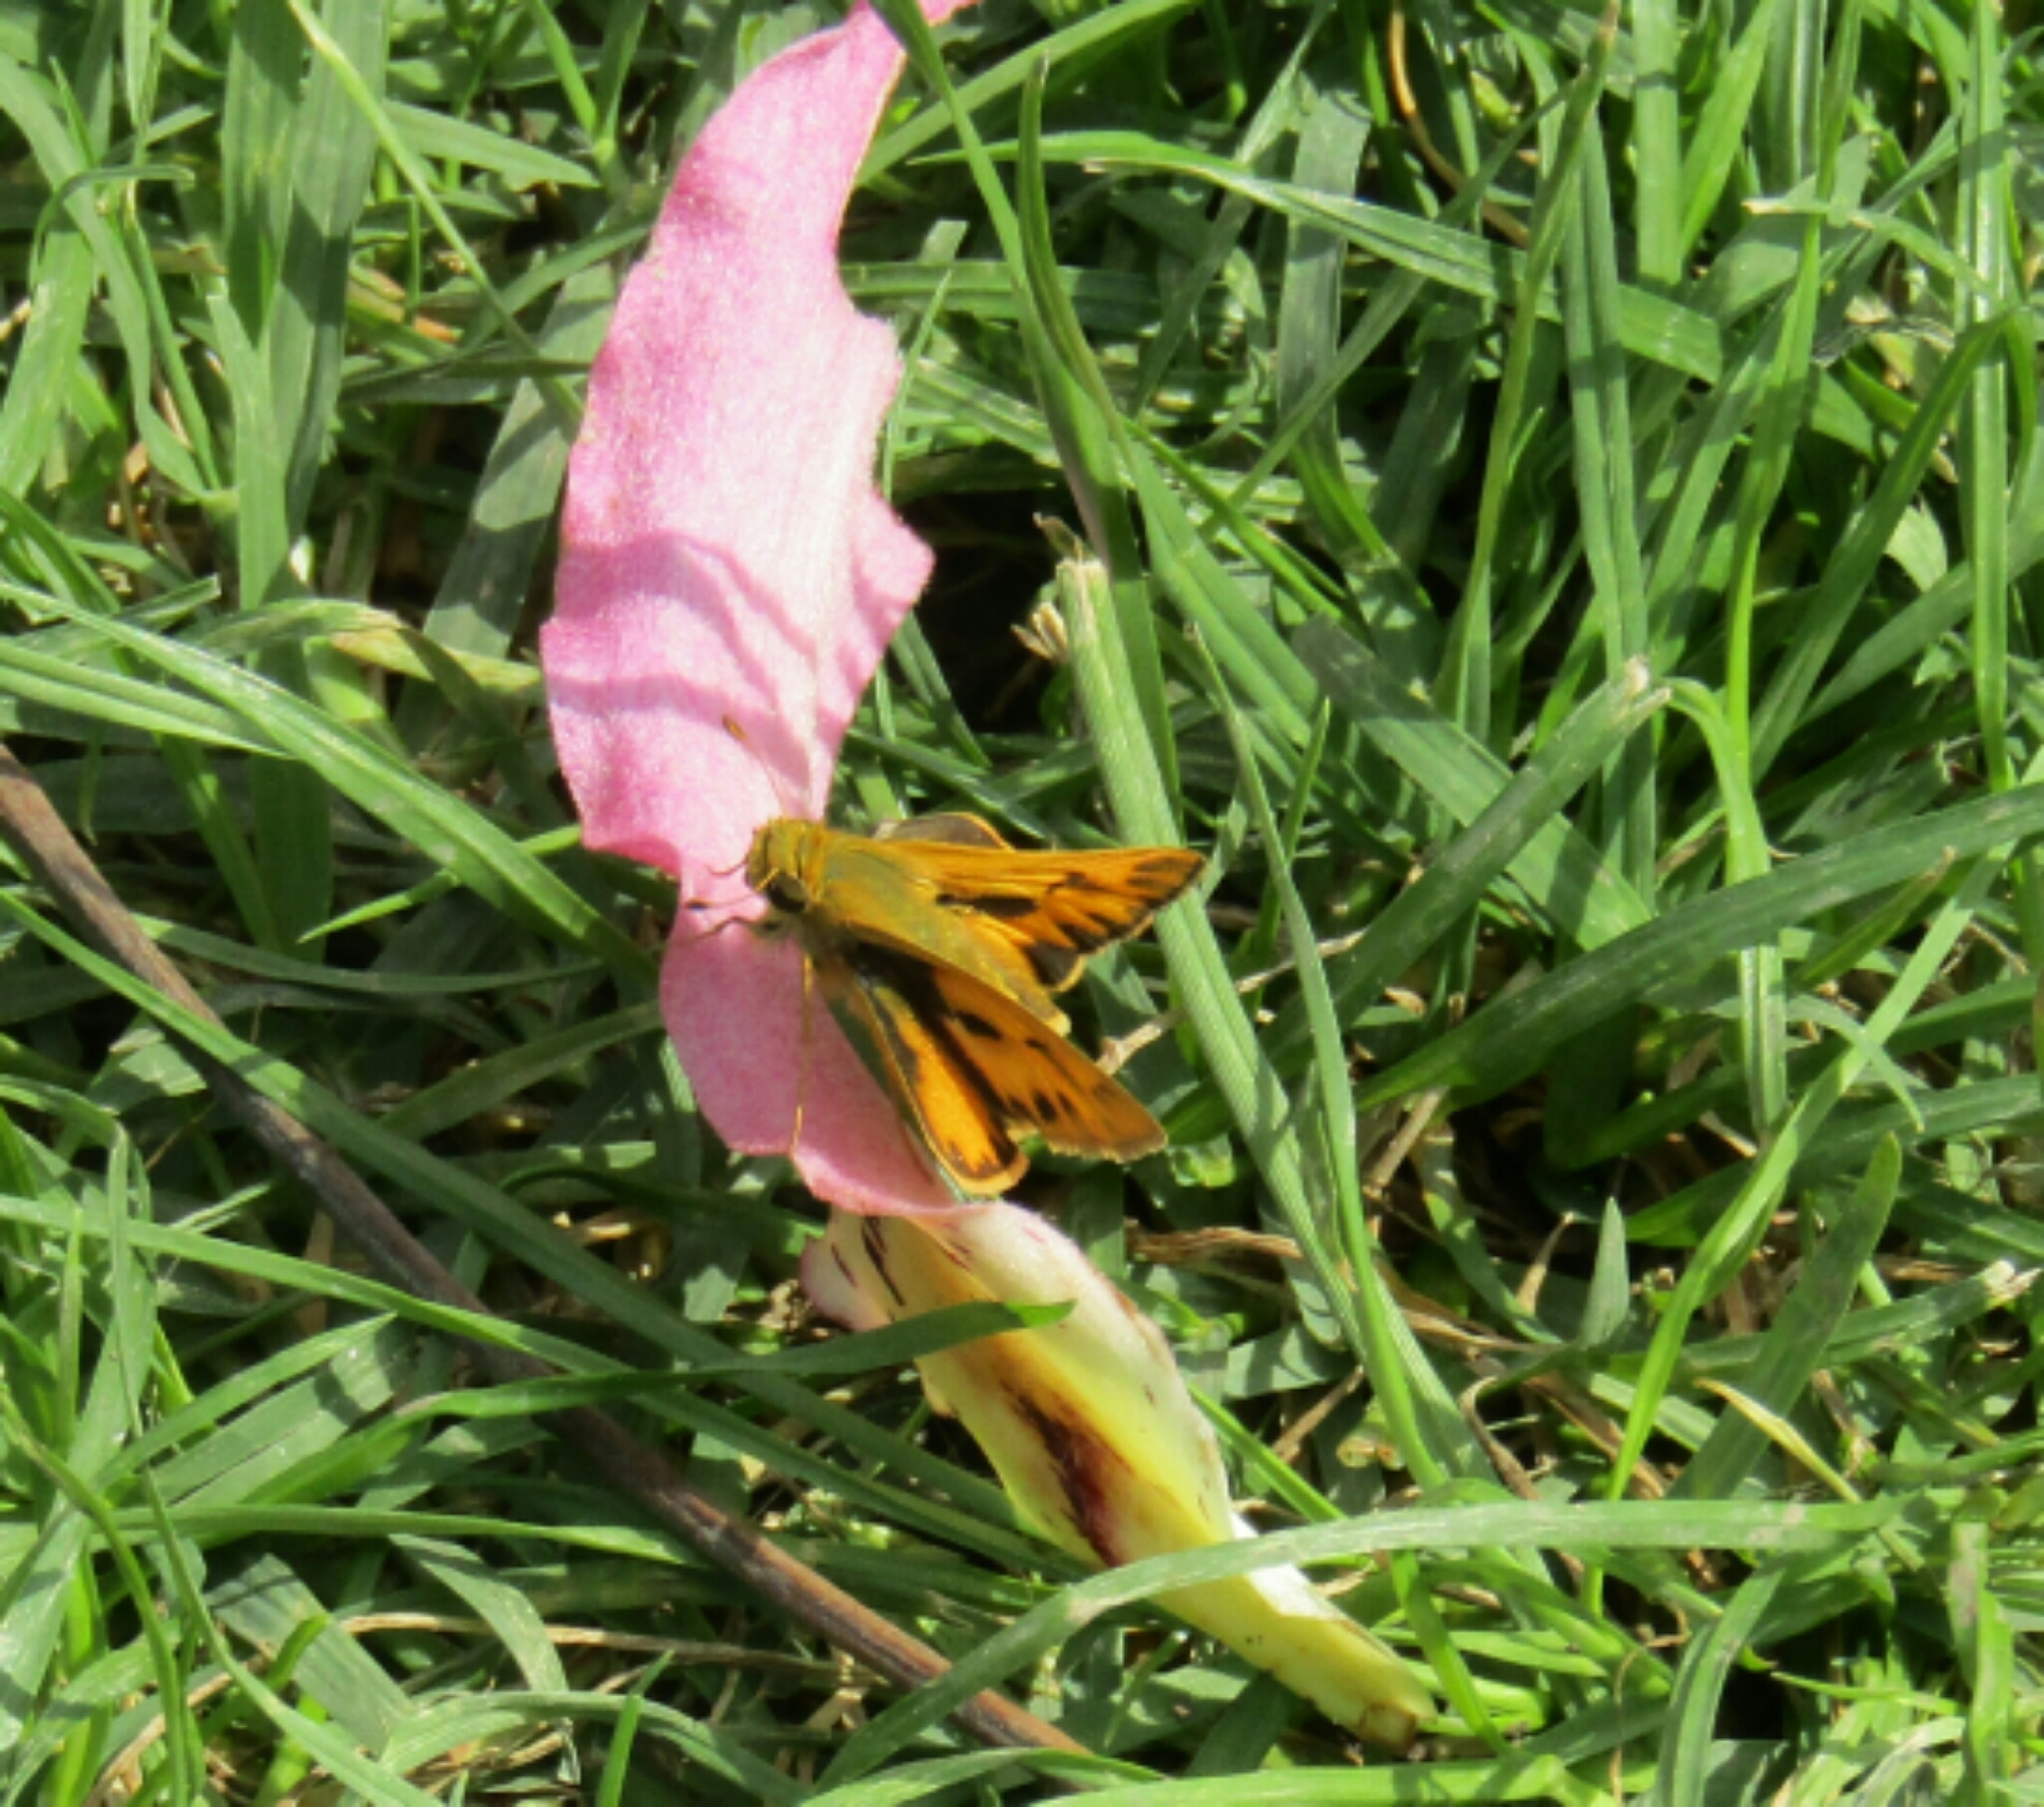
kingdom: Animalia
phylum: Arthropoda
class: Insecta
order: Lepidoptera
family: Hesperiidae
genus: Hylephila
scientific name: Hylephila phyleus
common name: Fiery skipper
